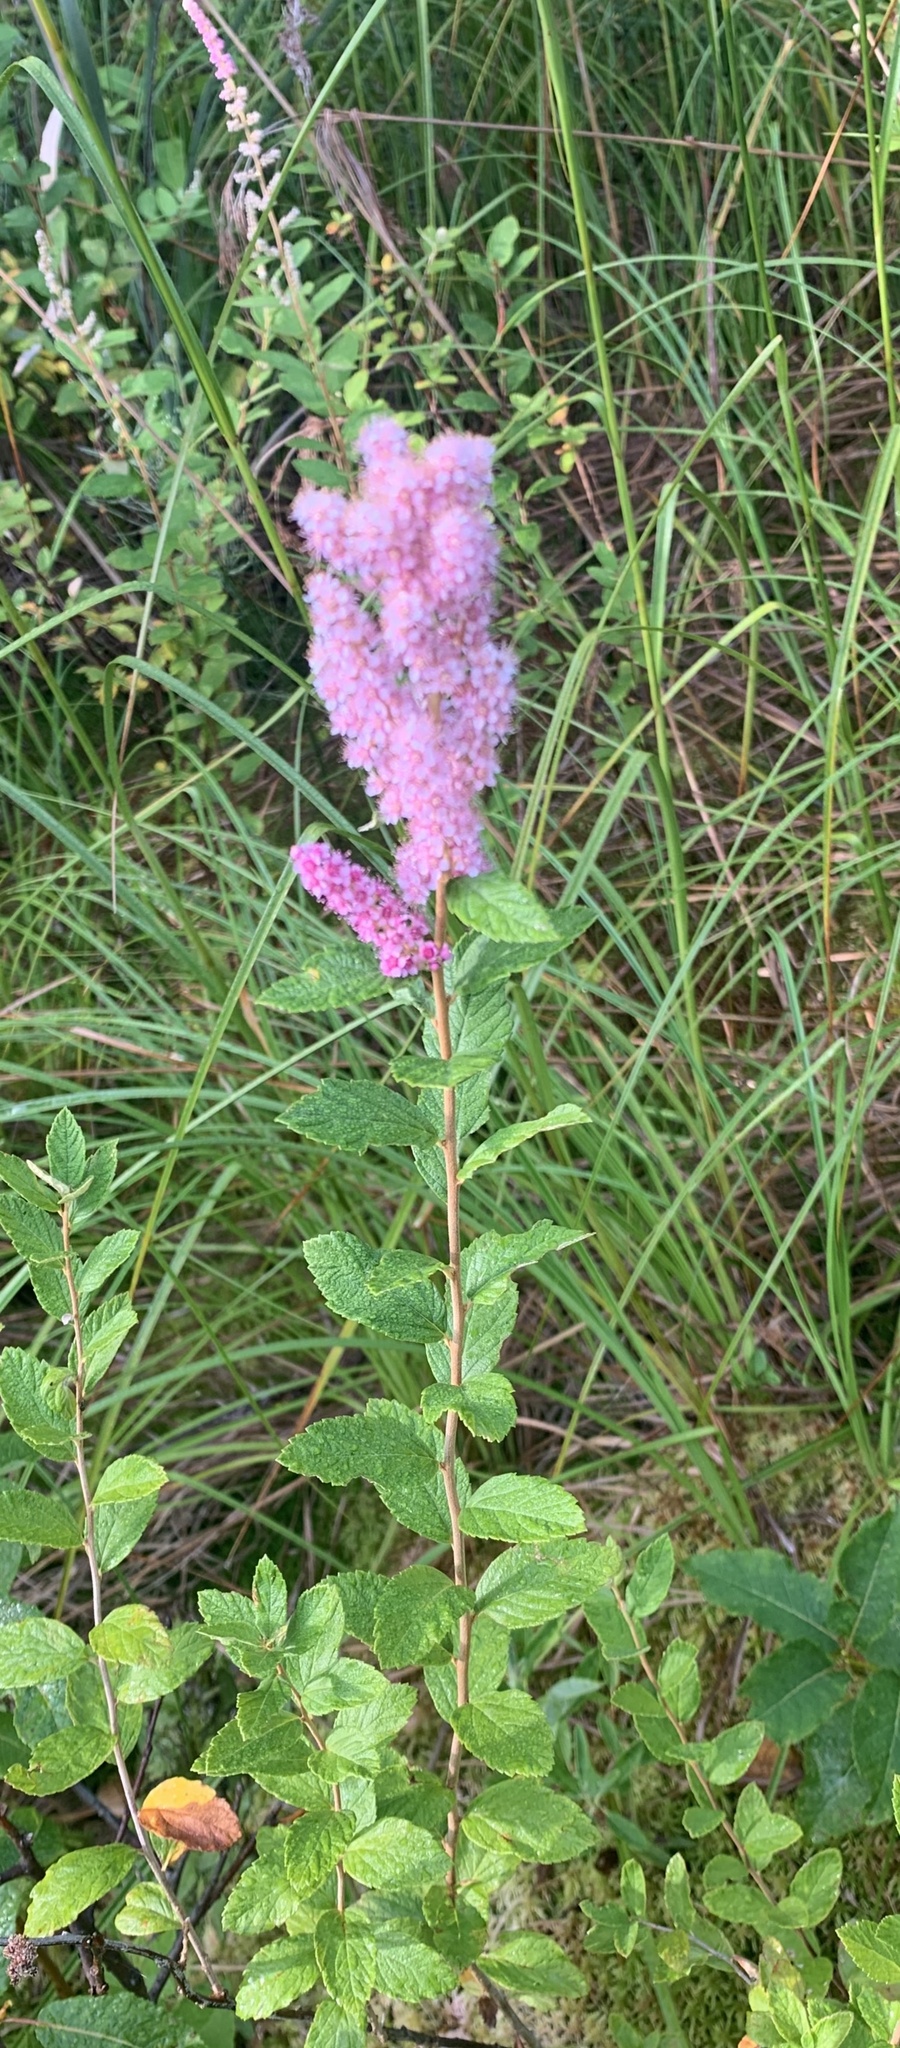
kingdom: Plantae
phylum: Tracheophyta
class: Magnoliopsida
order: Rosales
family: Rosaceae
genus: Spiraea
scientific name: Spiraea tomentosa
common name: Hardhack
